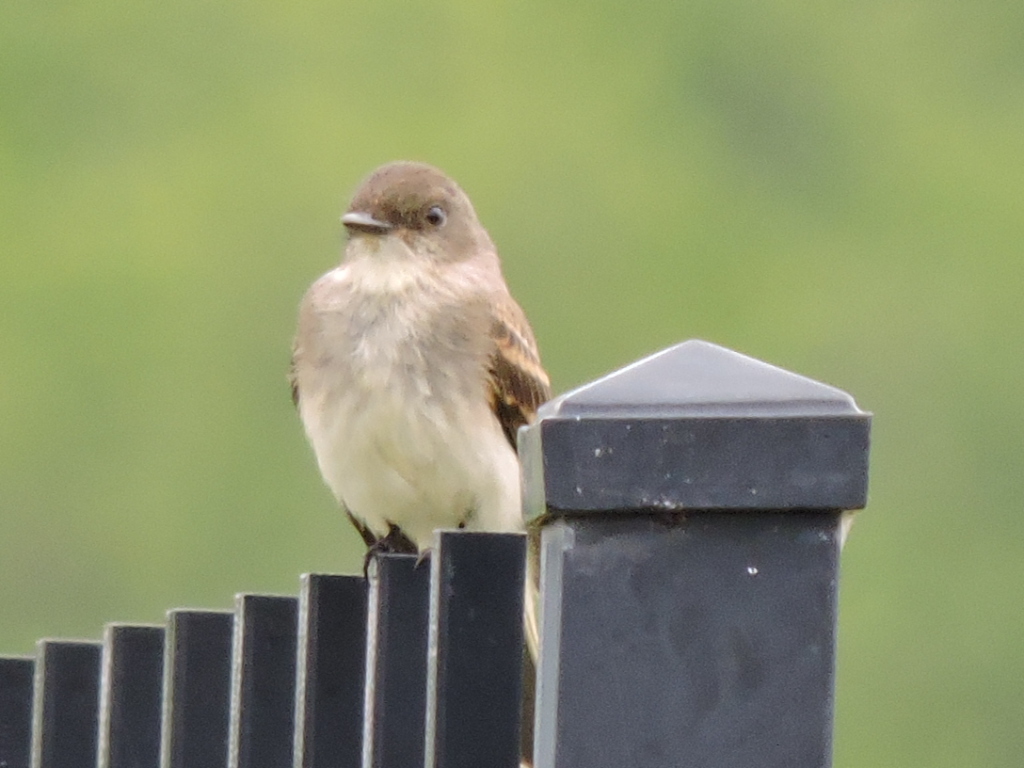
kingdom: Animalia
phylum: Chordata
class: Aves
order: Passeriformes
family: Tyrannidae
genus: Sayornis
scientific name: Sayornis phoebe
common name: Eastern phoebe
